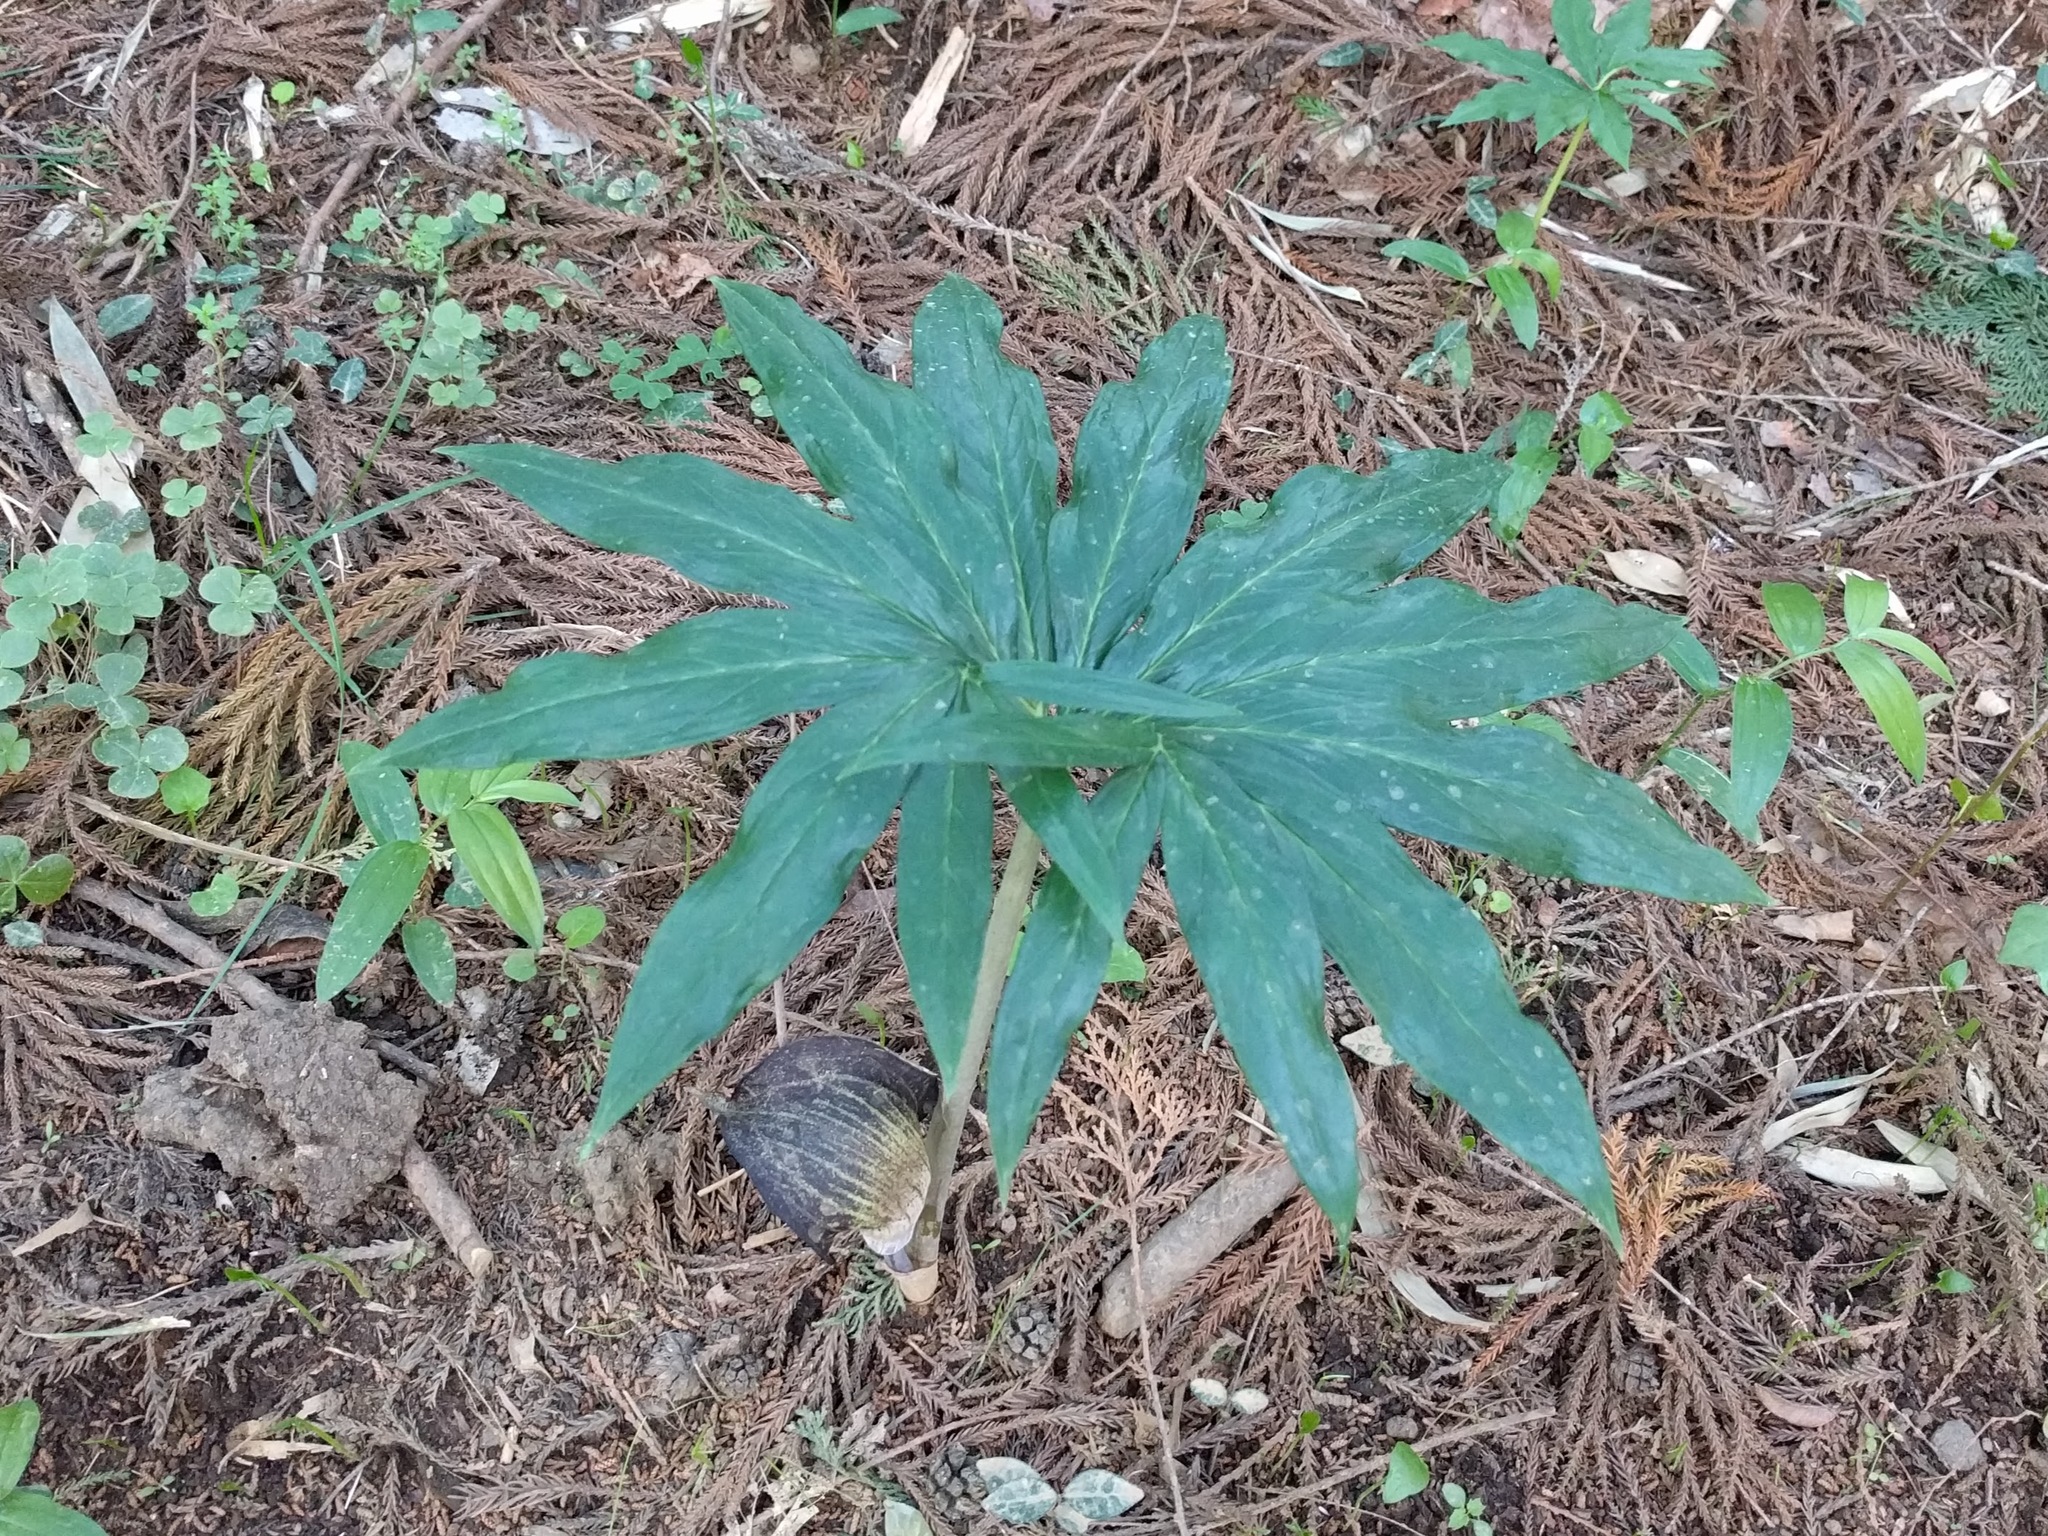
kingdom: Plantae
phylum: Tracheophyta
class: Liliopsida
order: Alismatales
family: Araceae
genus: Arisaema
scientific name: Arisaema thunbergii
